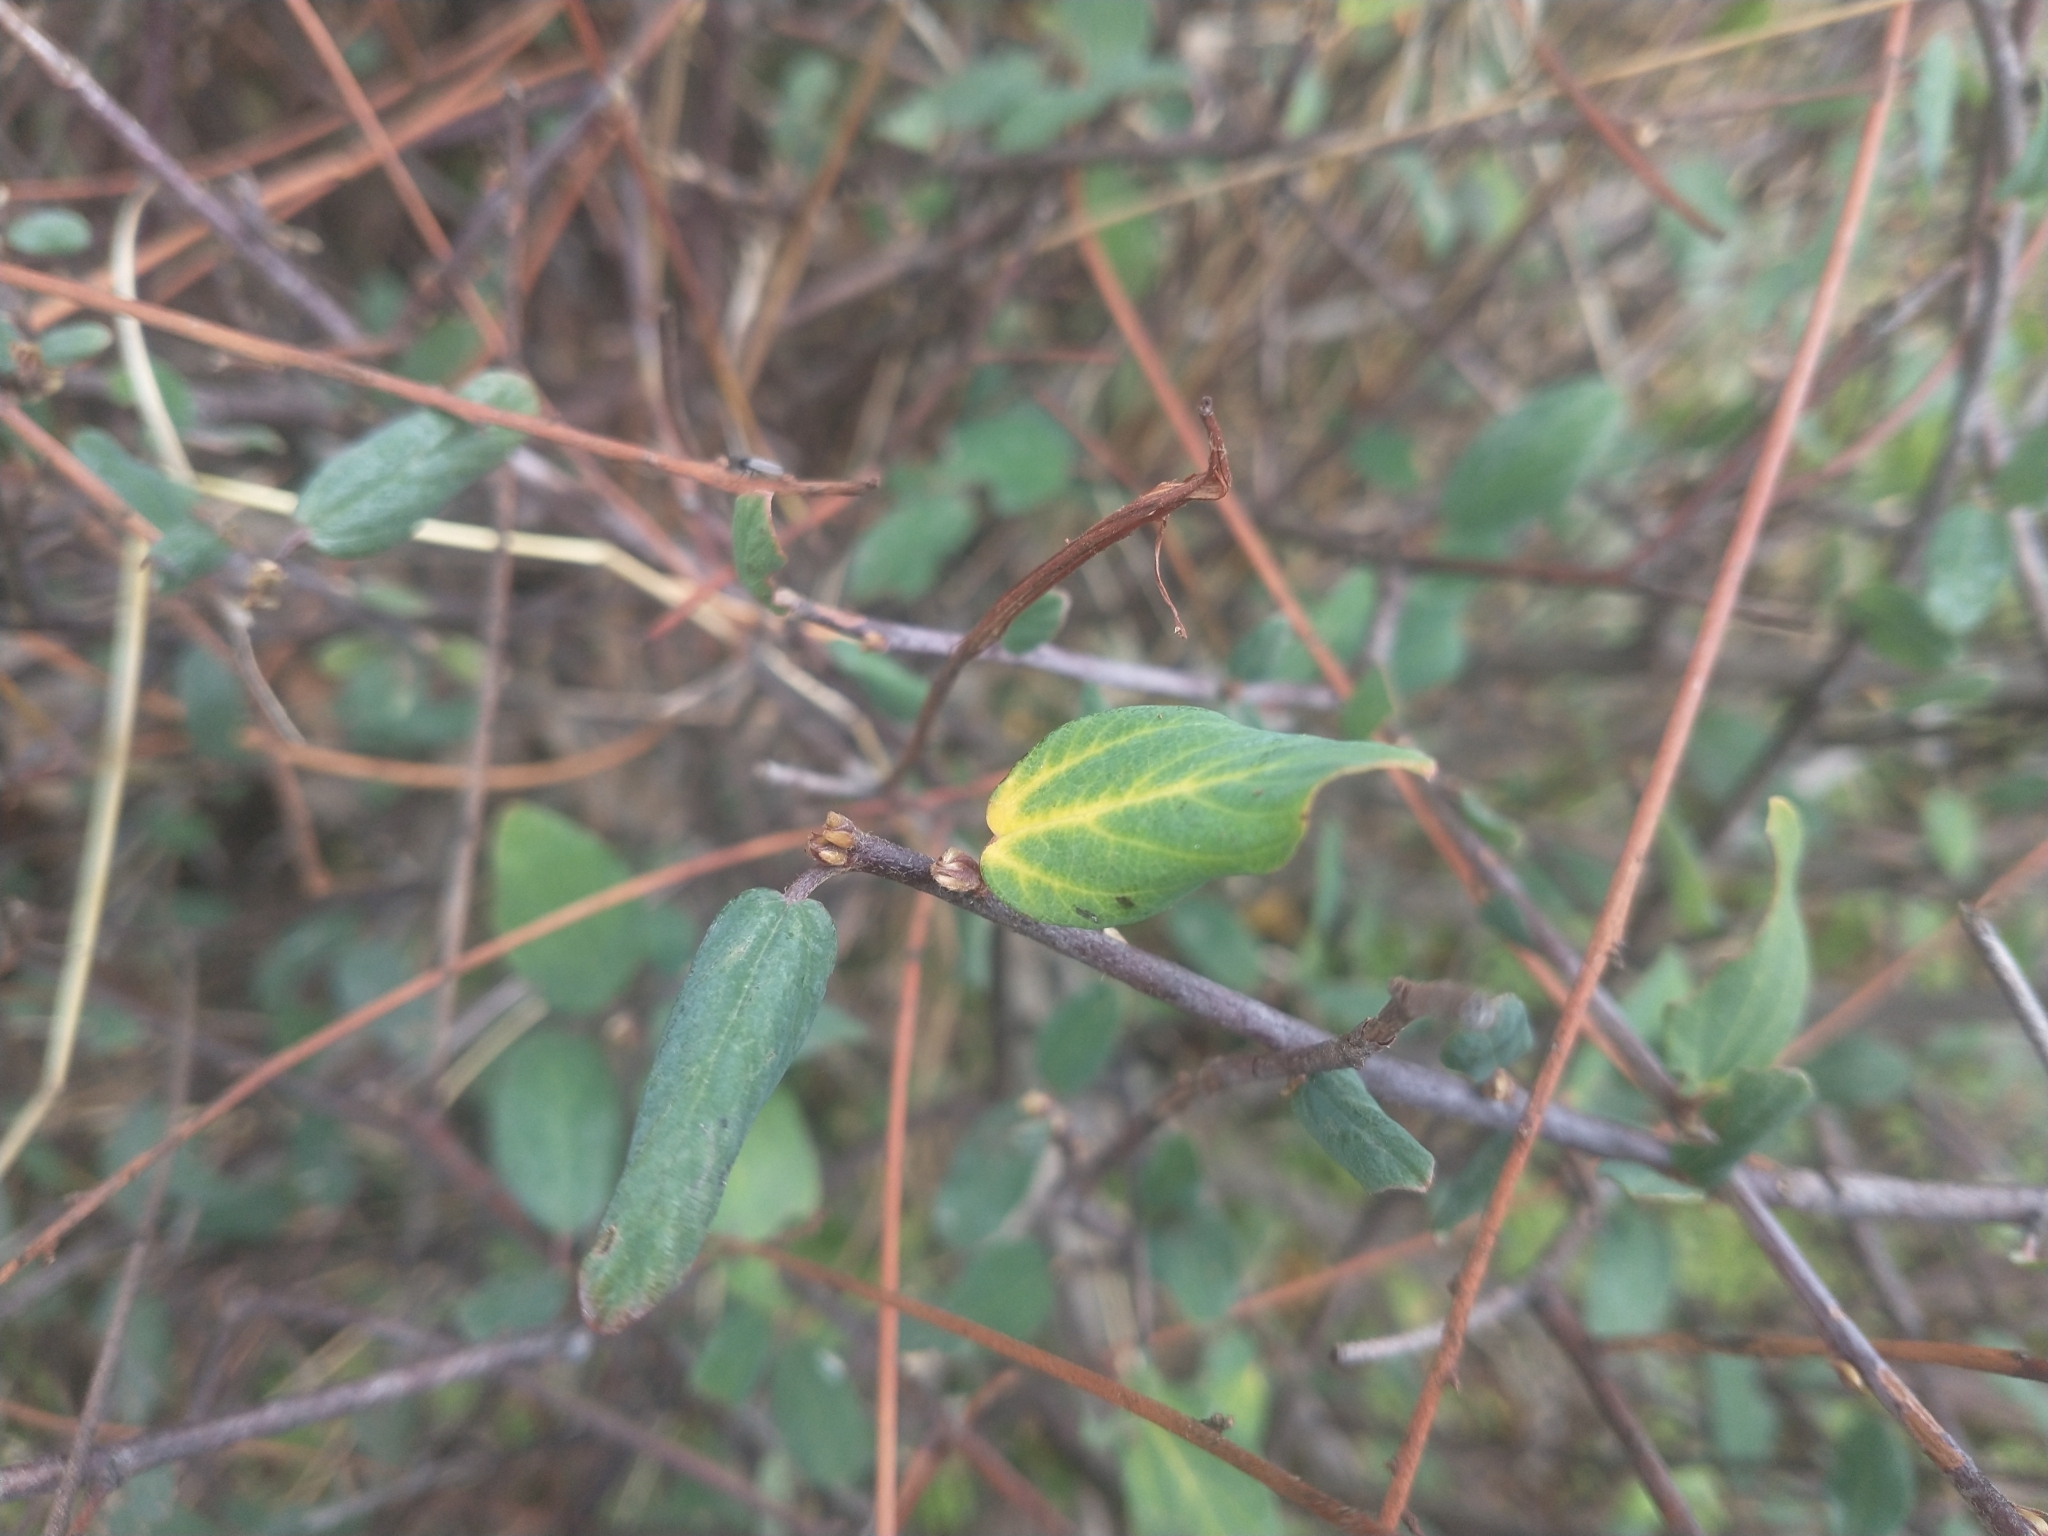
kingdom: Plantae
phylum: Tracheophyta
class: Magnoliopsida
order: Rosales
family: Rhamnaceae
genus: Ceanothus
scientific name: Ceanothus integerrimus
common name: Deerbrush ceanothus
